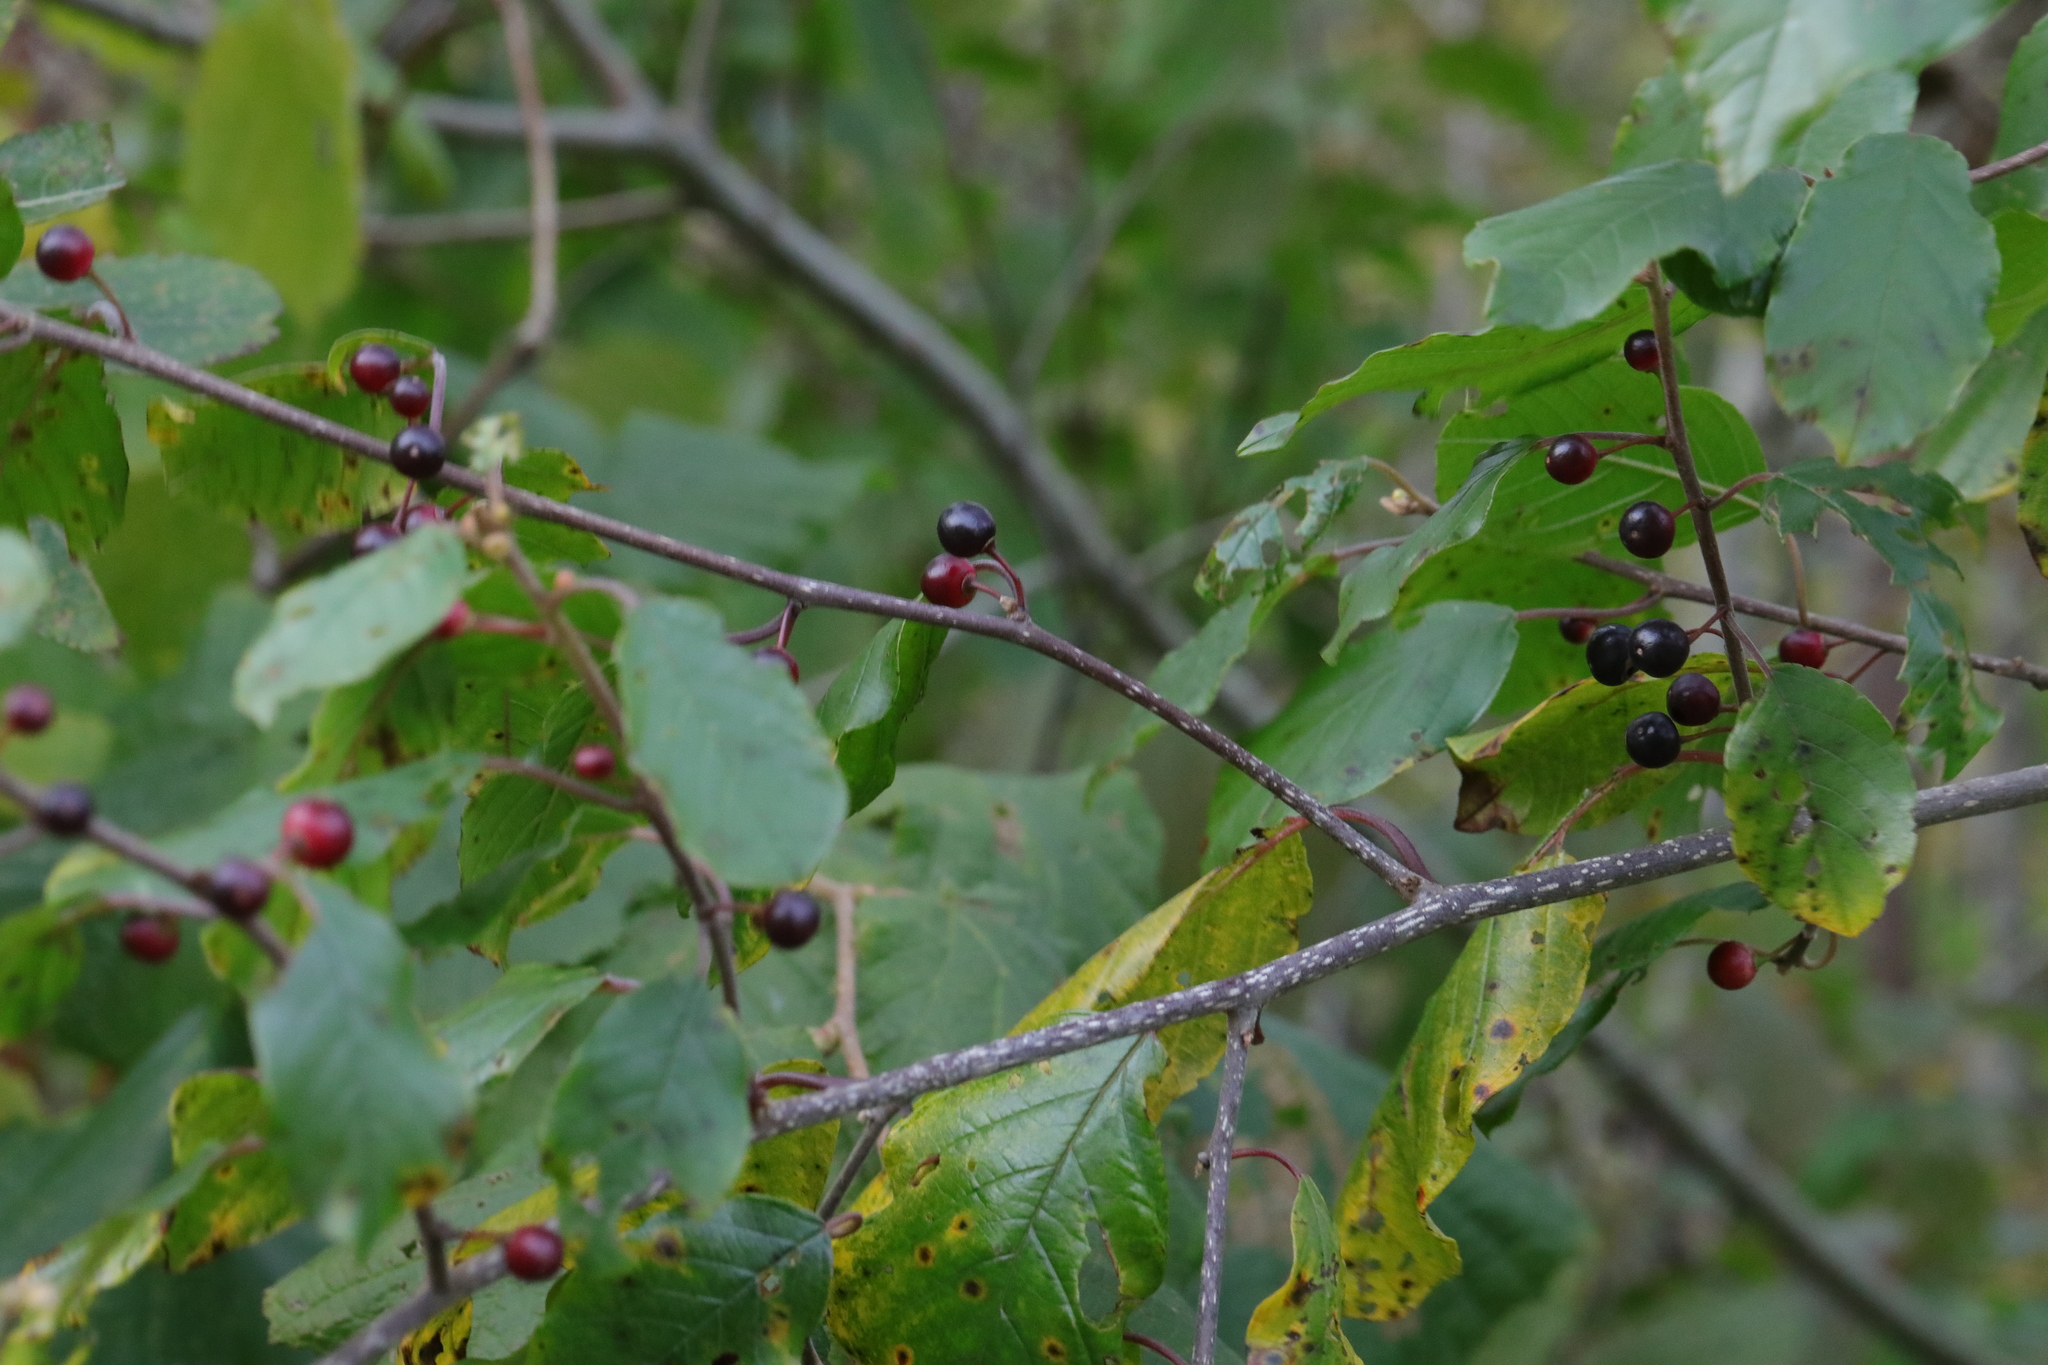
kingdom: Plantae
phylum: Tracheophyta
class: Magnoliopsida
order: Rosales
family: Rhamnaceae
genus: Frangula
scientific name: Frangula alnus
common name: Alder buckthorn
